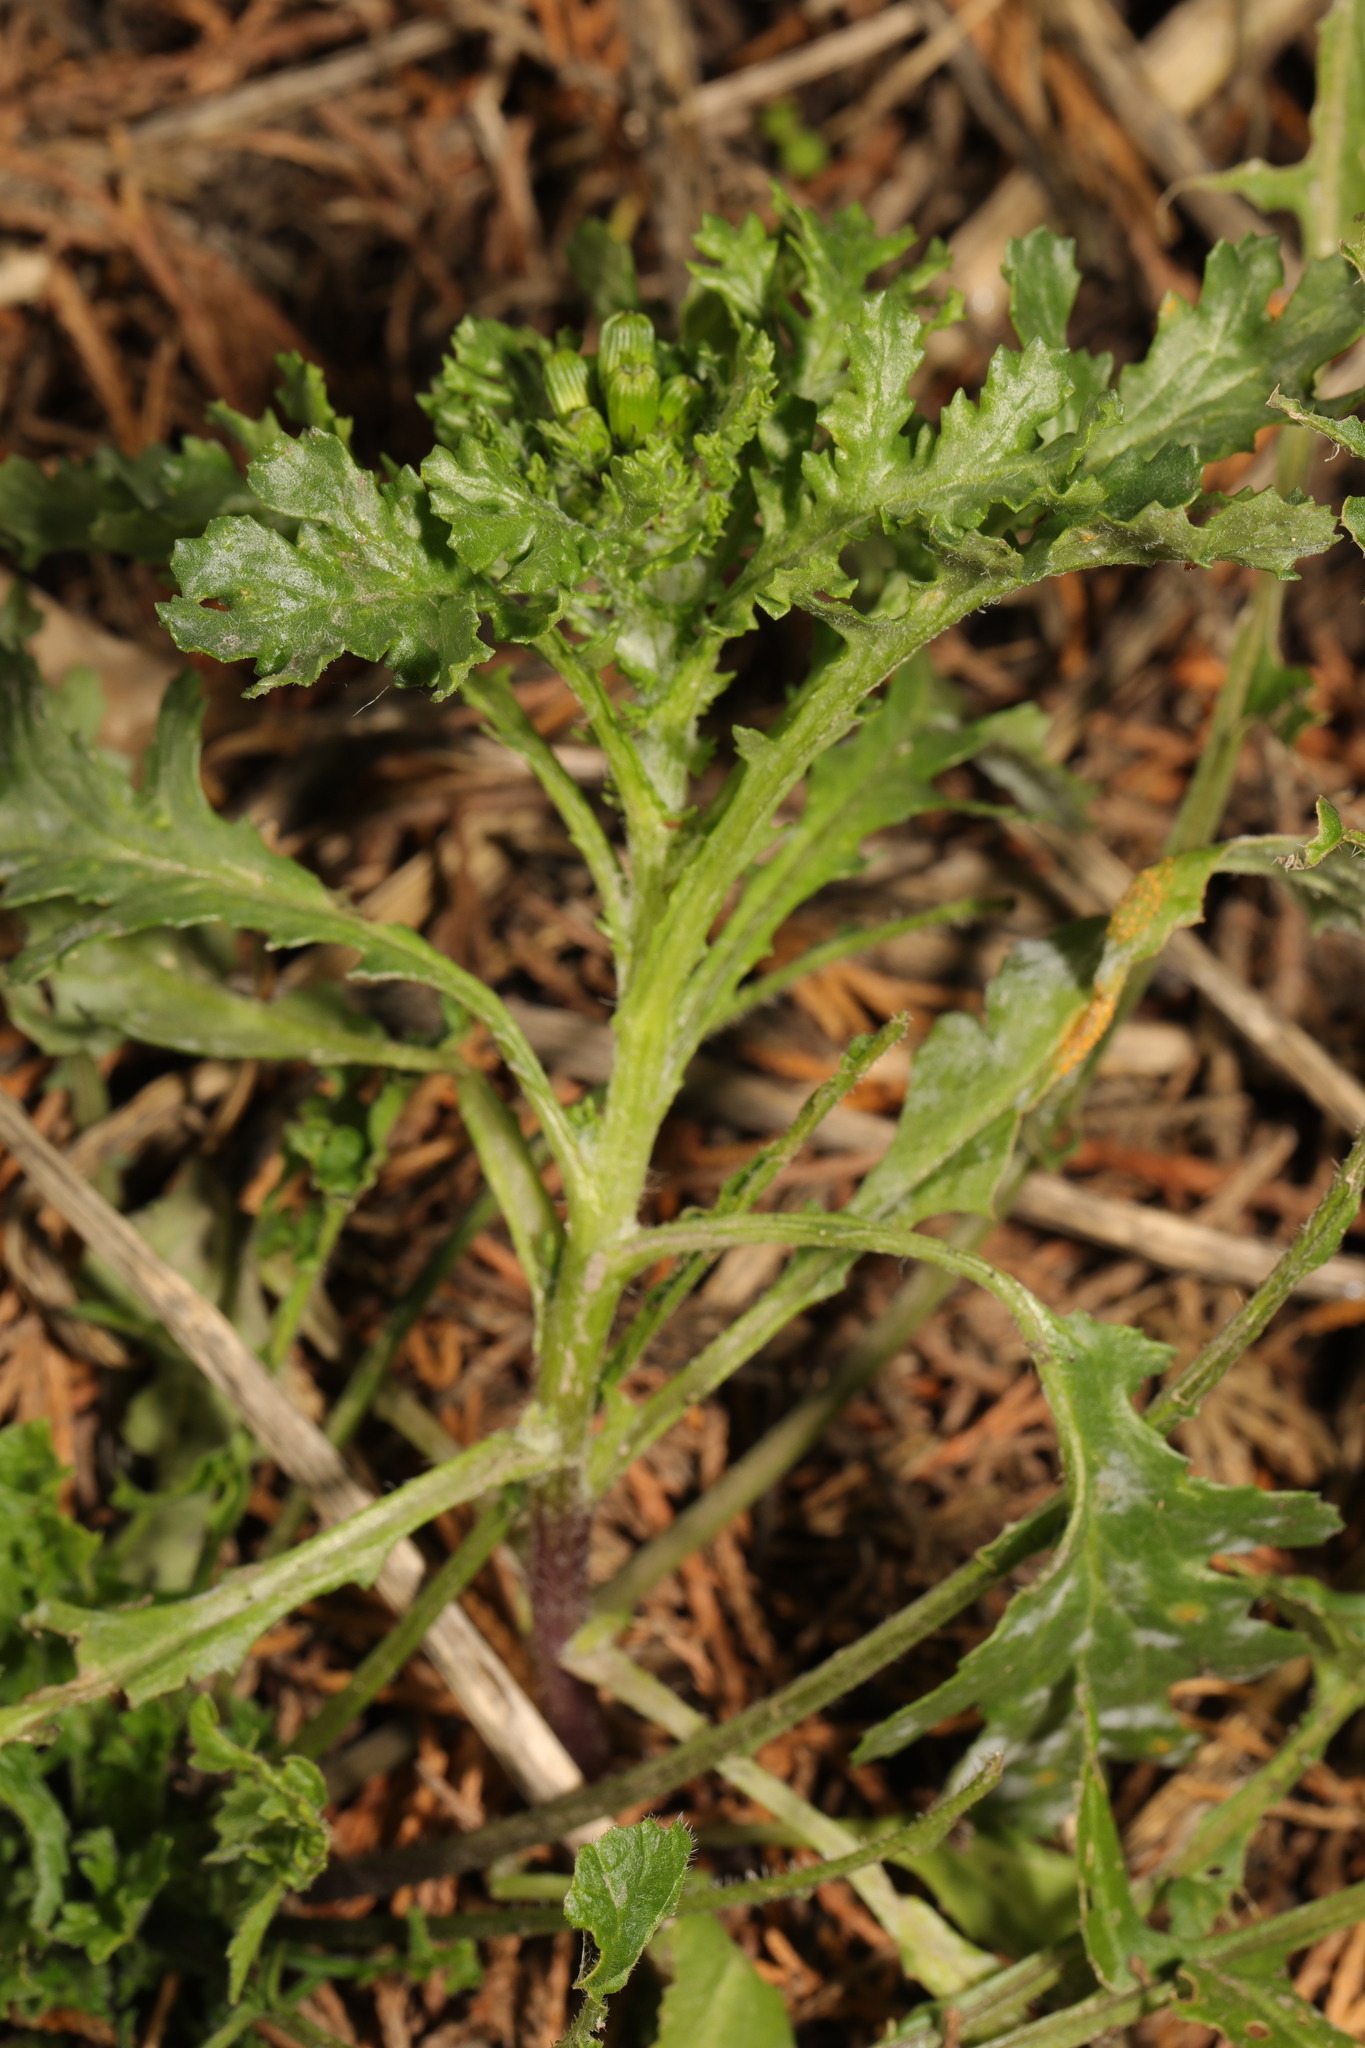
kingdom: Plantae
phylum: Tracheophyta
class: Magnoliopsida
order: Asterales
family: Asteraceae
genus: Senecio
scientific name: Senecio vulgaris
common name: Old-man-in-the-spring
